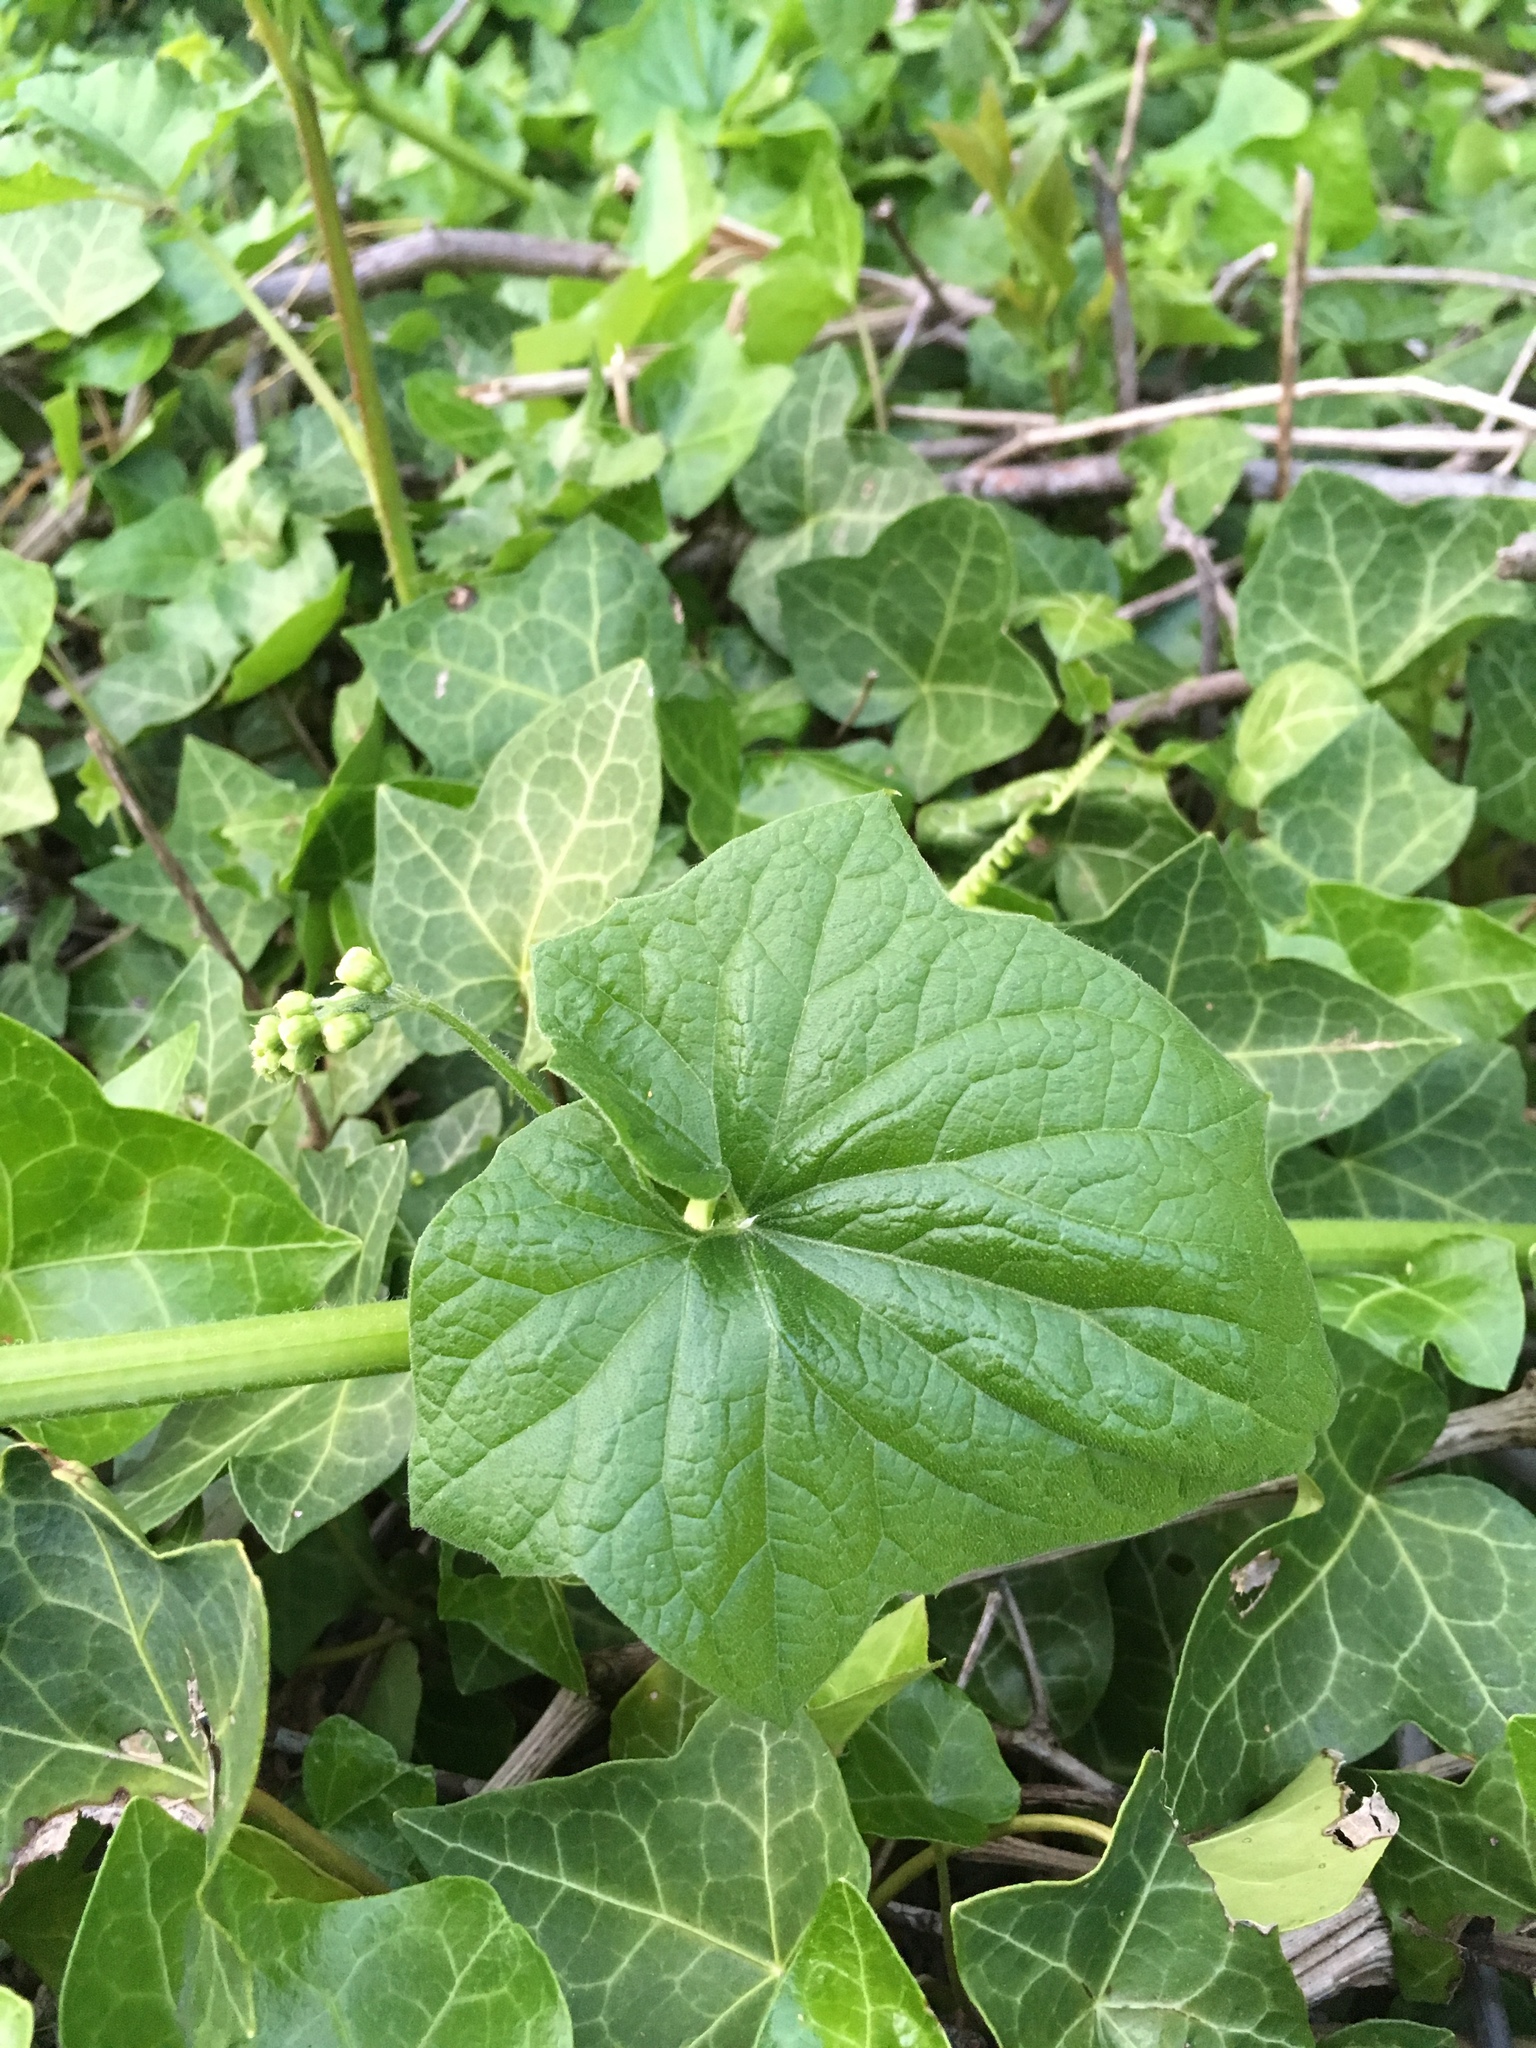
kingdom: Plantae
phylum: Tracheophyta
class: Magnoliopsida
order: Cucurbitales
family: Cucurbitaceae
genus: Marah
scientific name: Marah oregana
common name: Coastal manroot
